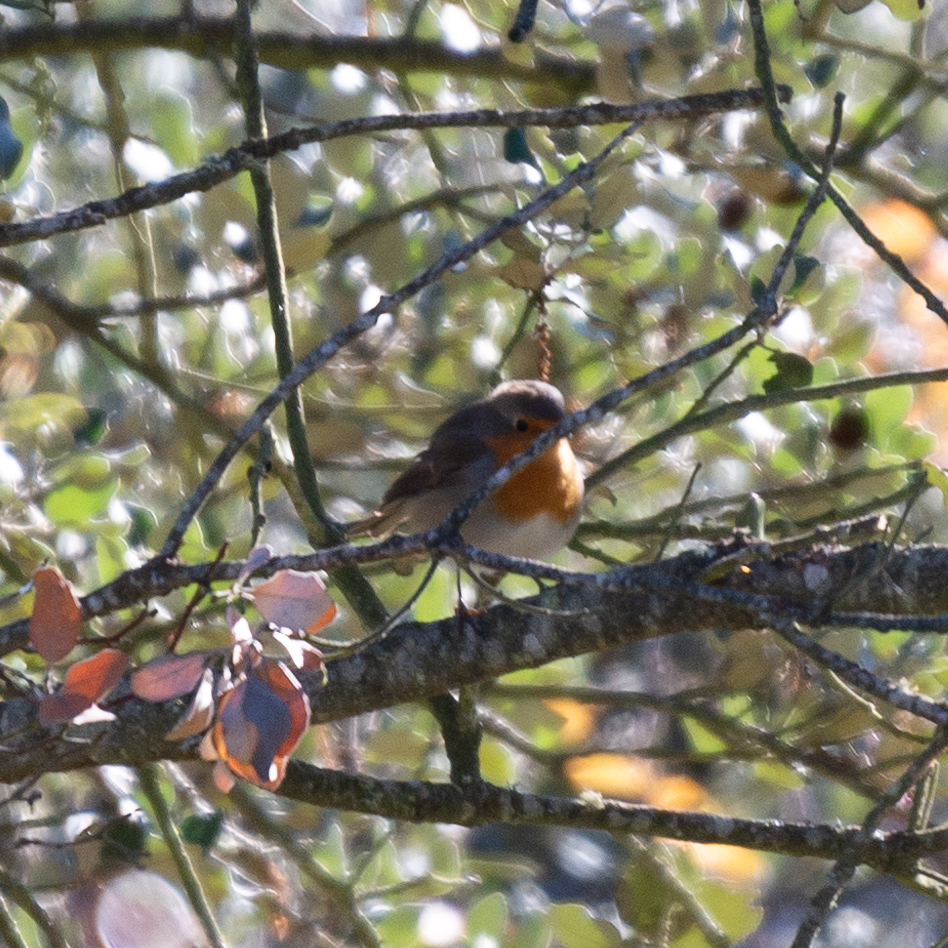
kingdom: Animalia
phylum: Chordata
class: Aves
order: Passeriformes
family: Muscicapidae
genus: Erithacus
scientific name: Erithacus rubecula
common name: European robin
